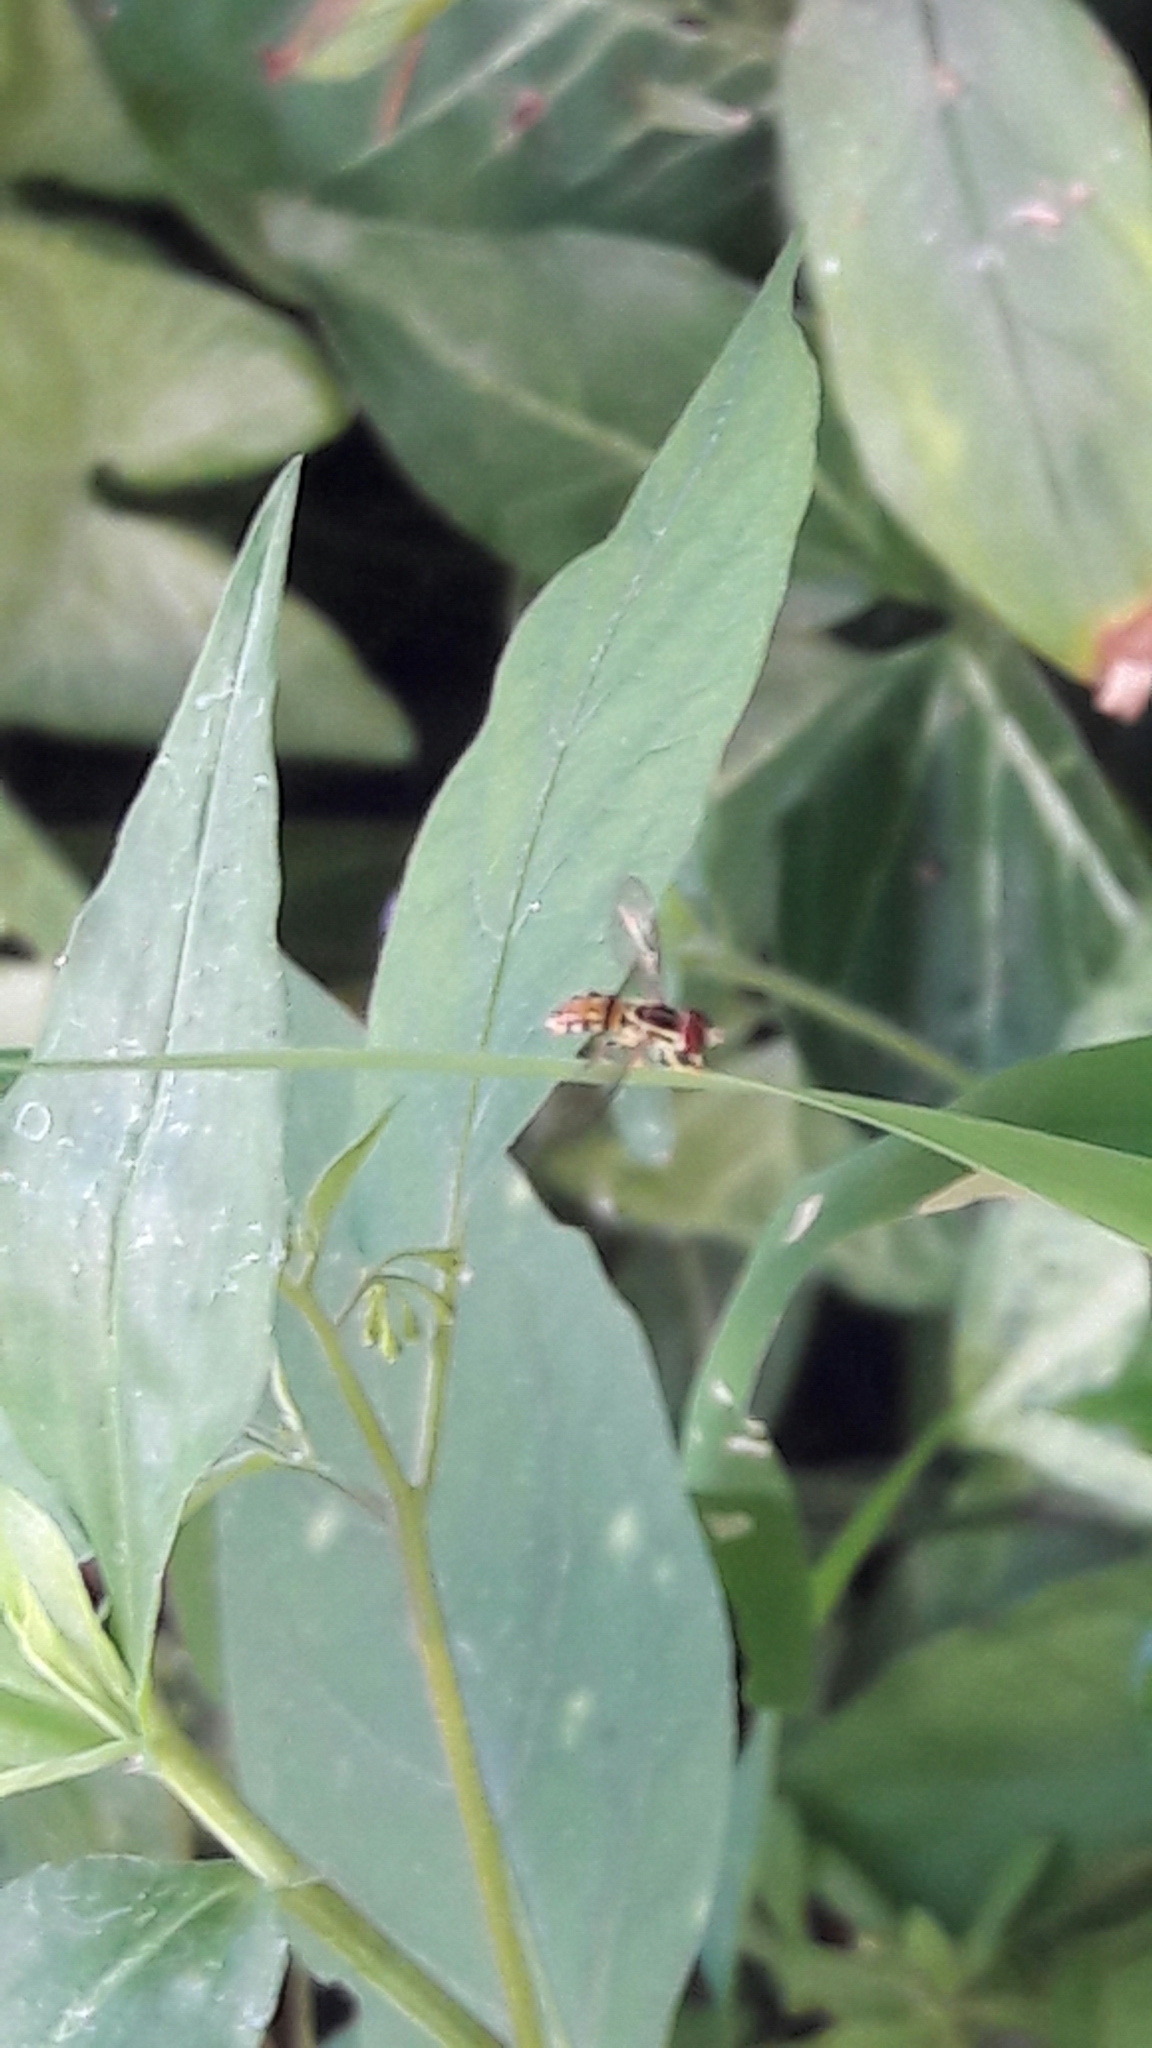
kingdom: Animalia
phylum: Arthropoda
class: Insecta
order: Diptera
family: Syrphidae
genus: Toxomerus
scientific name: Toxomerus
